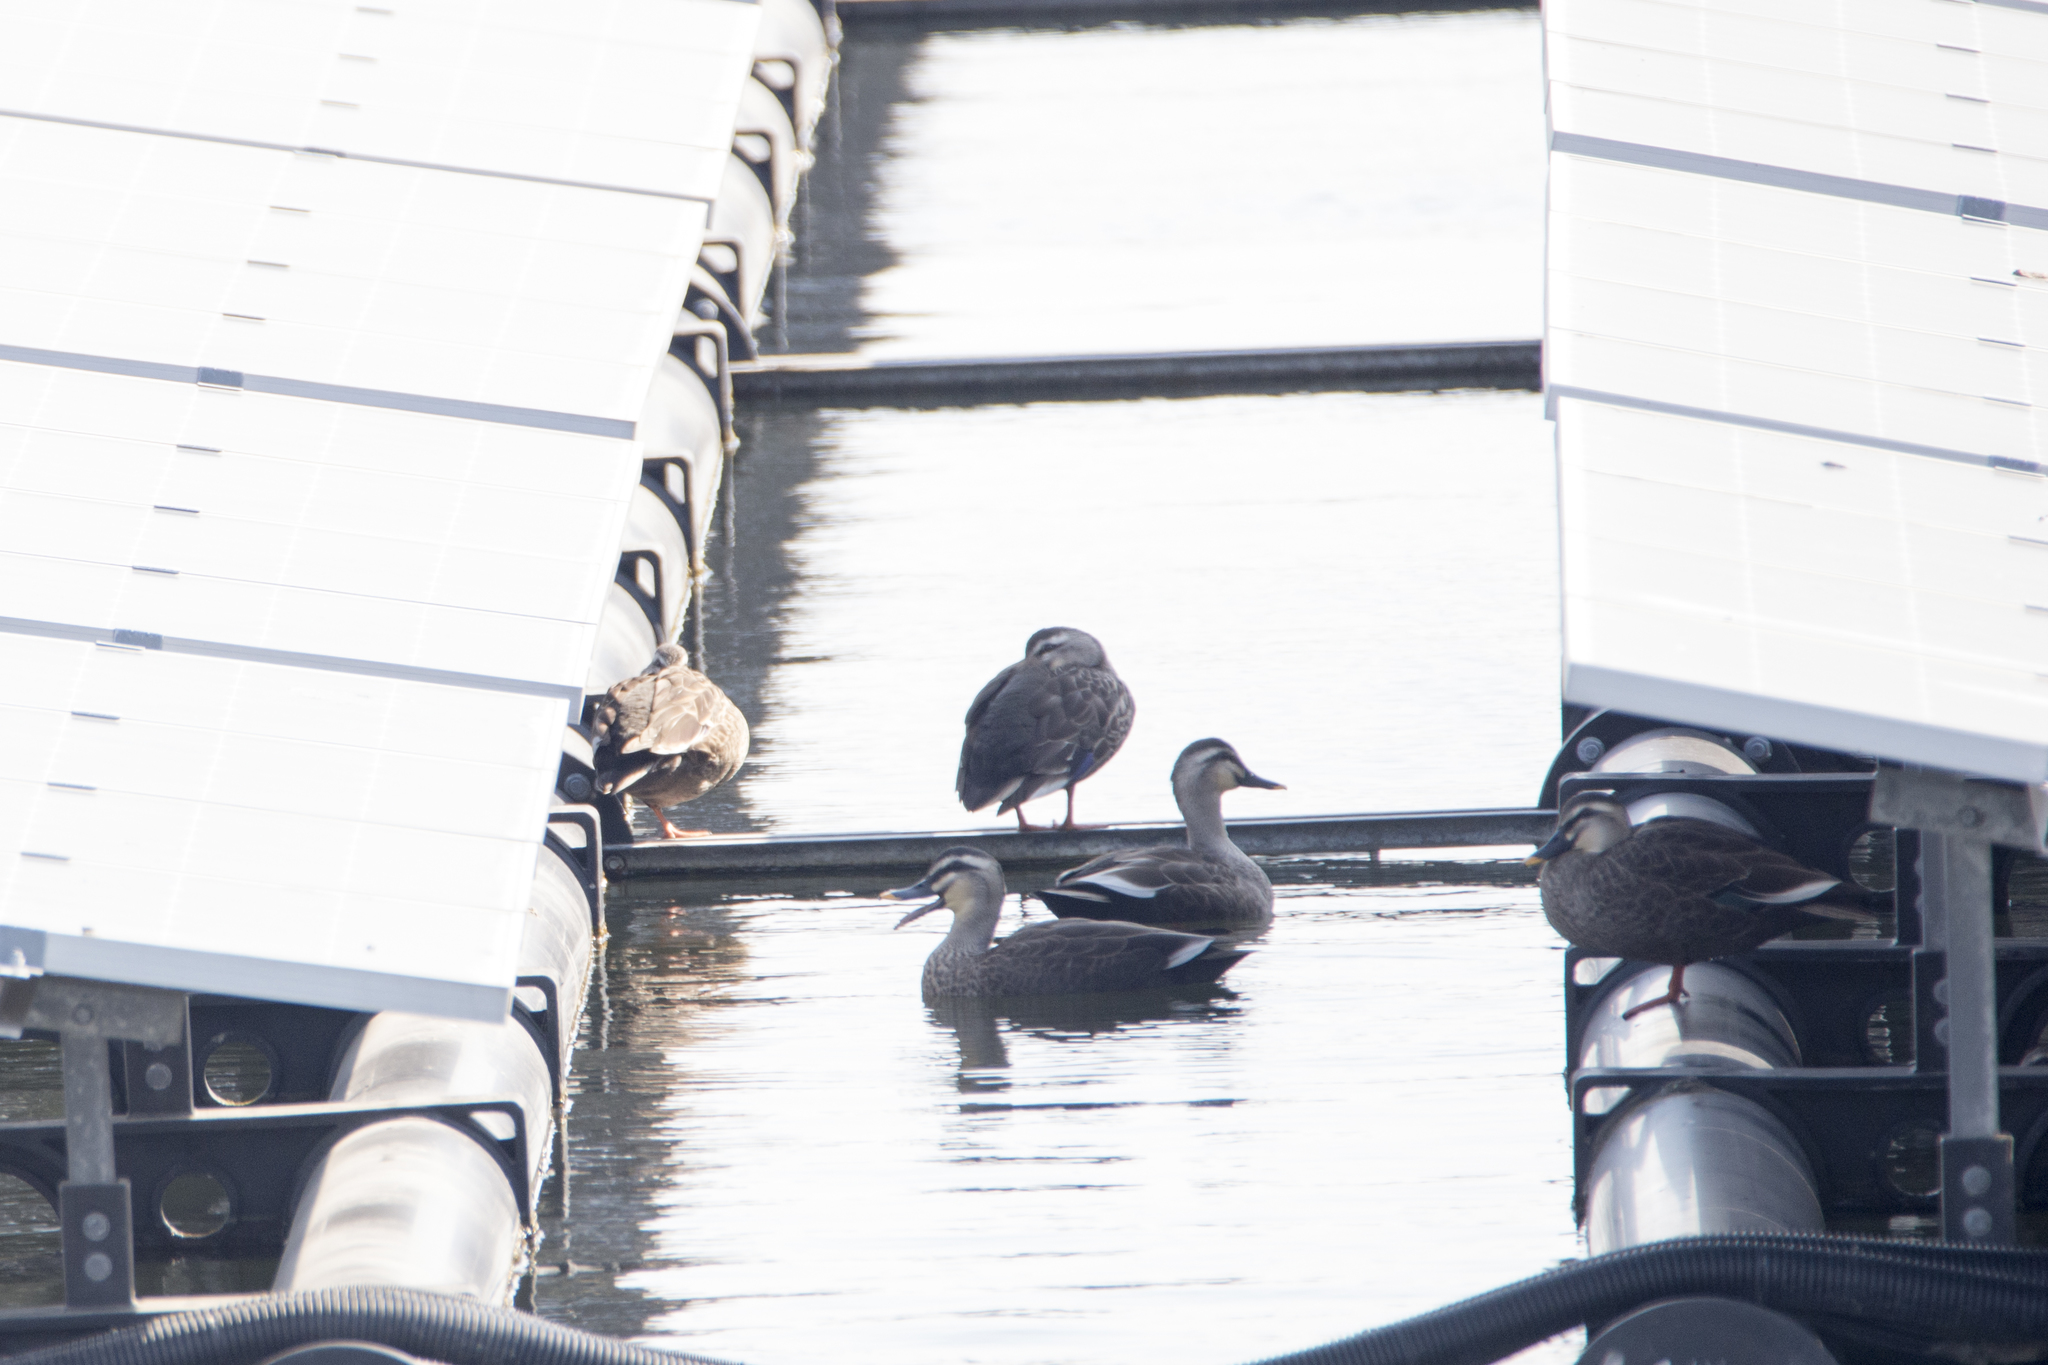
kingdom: Animalia
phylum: Chordata
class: Aves
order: Anseriformes
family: Anatidae
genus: Anas
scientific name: Anas zonorhyncha
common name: Eastern spot-billed duck
